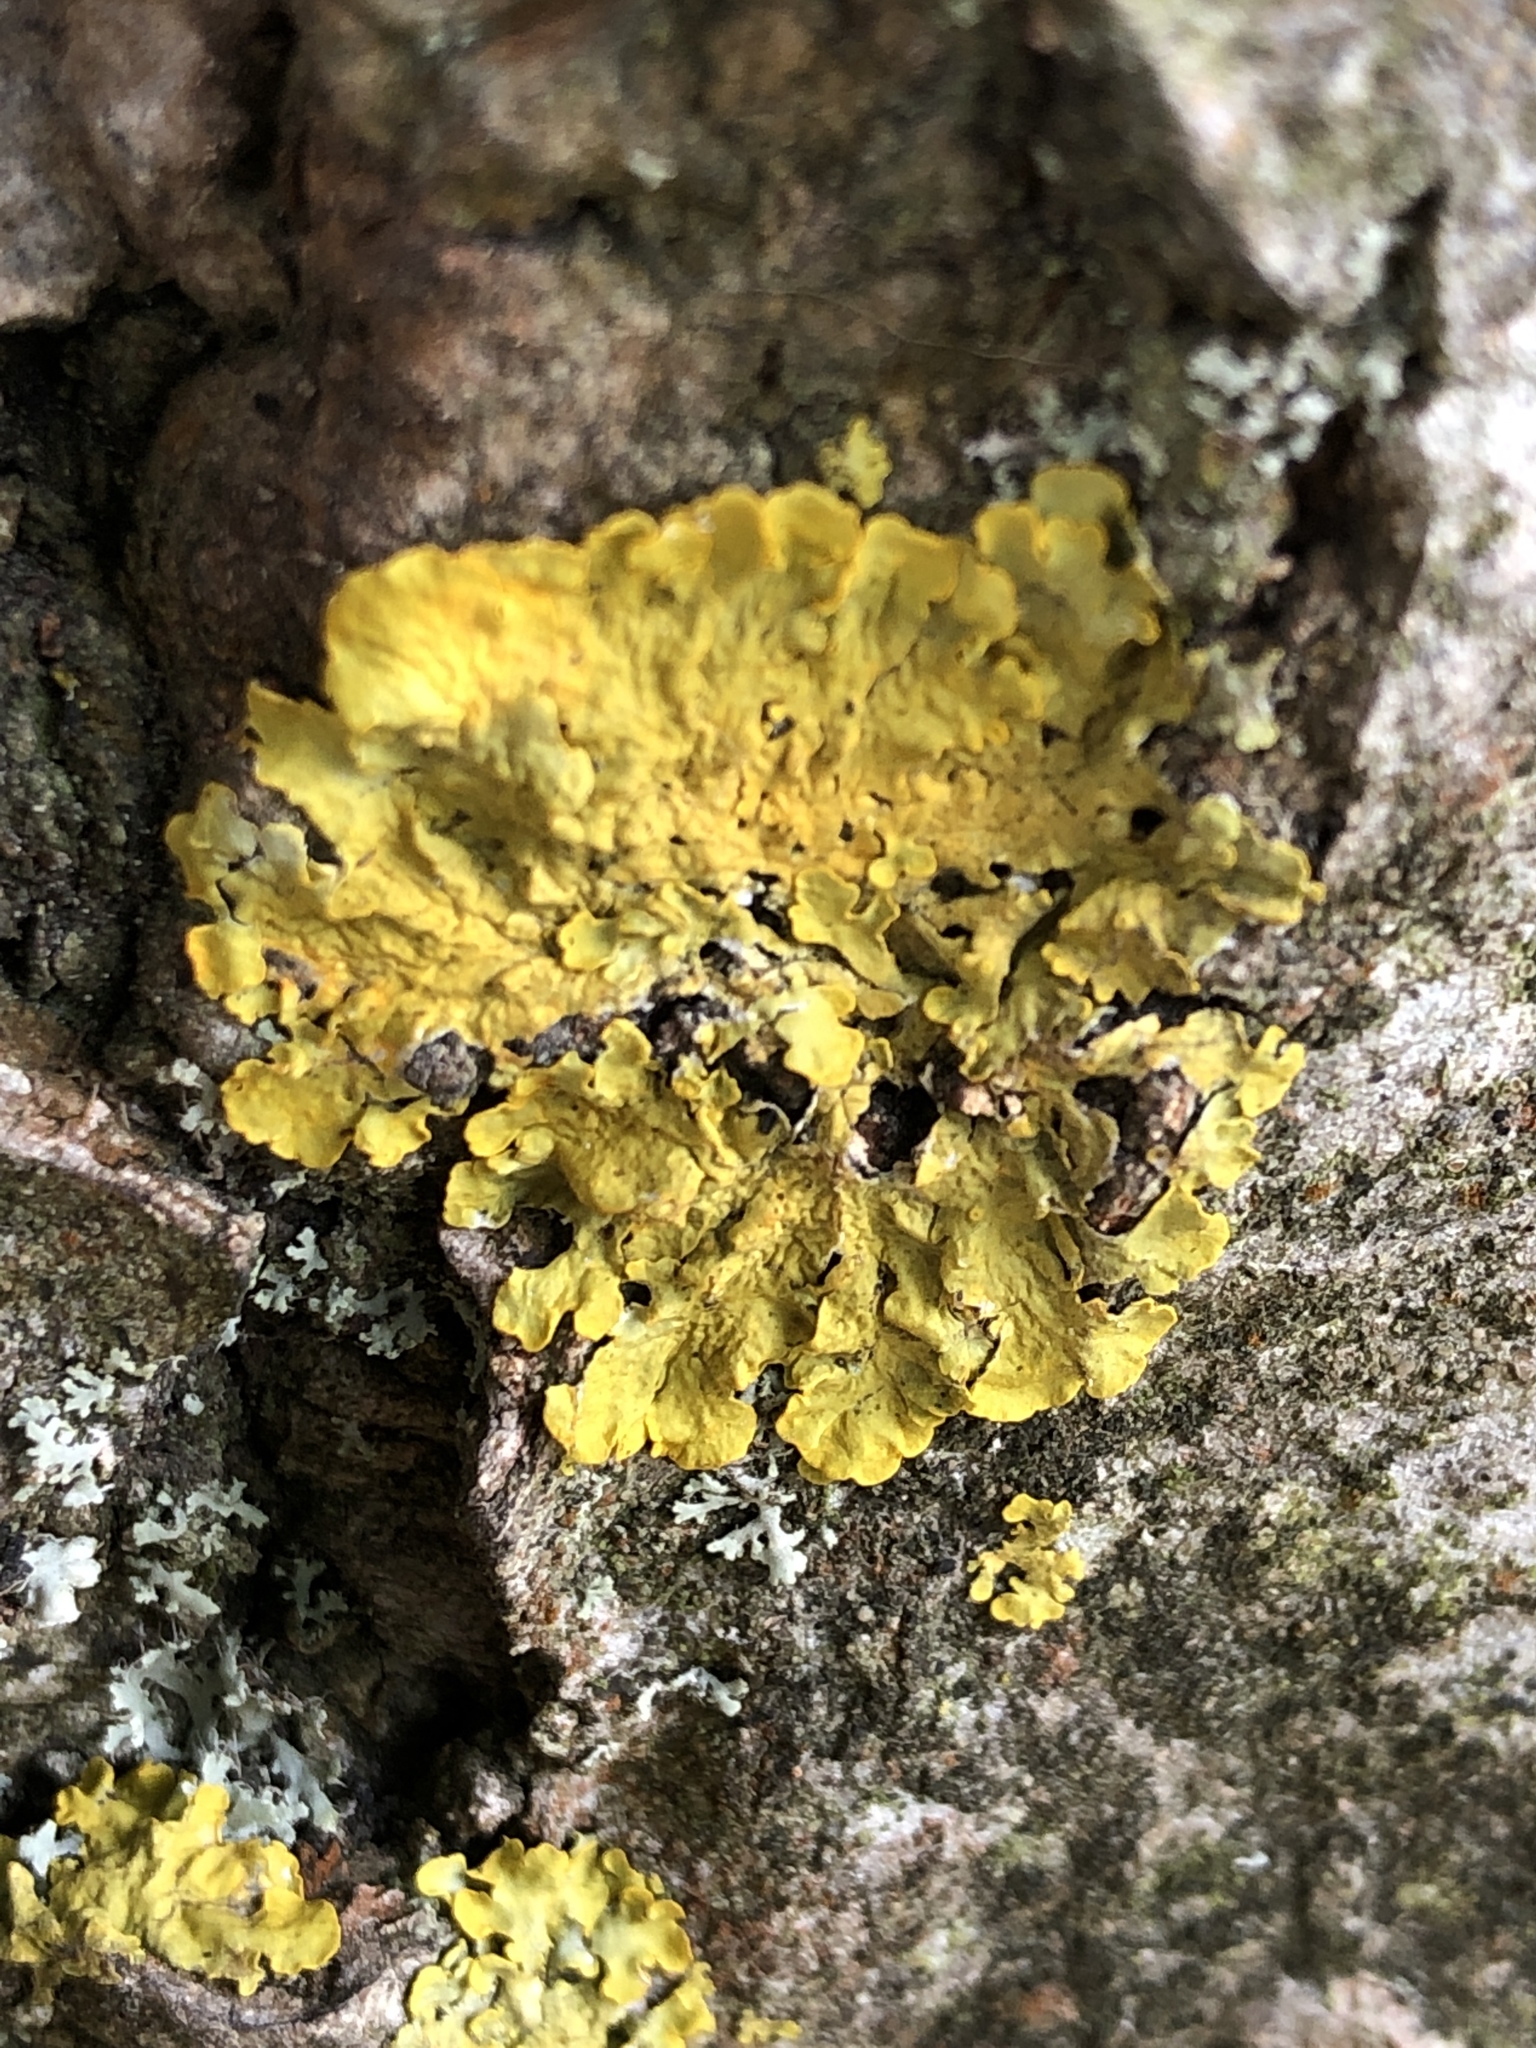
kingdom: Fungi
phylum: Ascomycota
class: Lecanoromycetes
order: Teloschistales
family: Teloschistaceae
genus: Xanthoria
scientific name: Xanthoria parietina
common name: Common orange lichen
